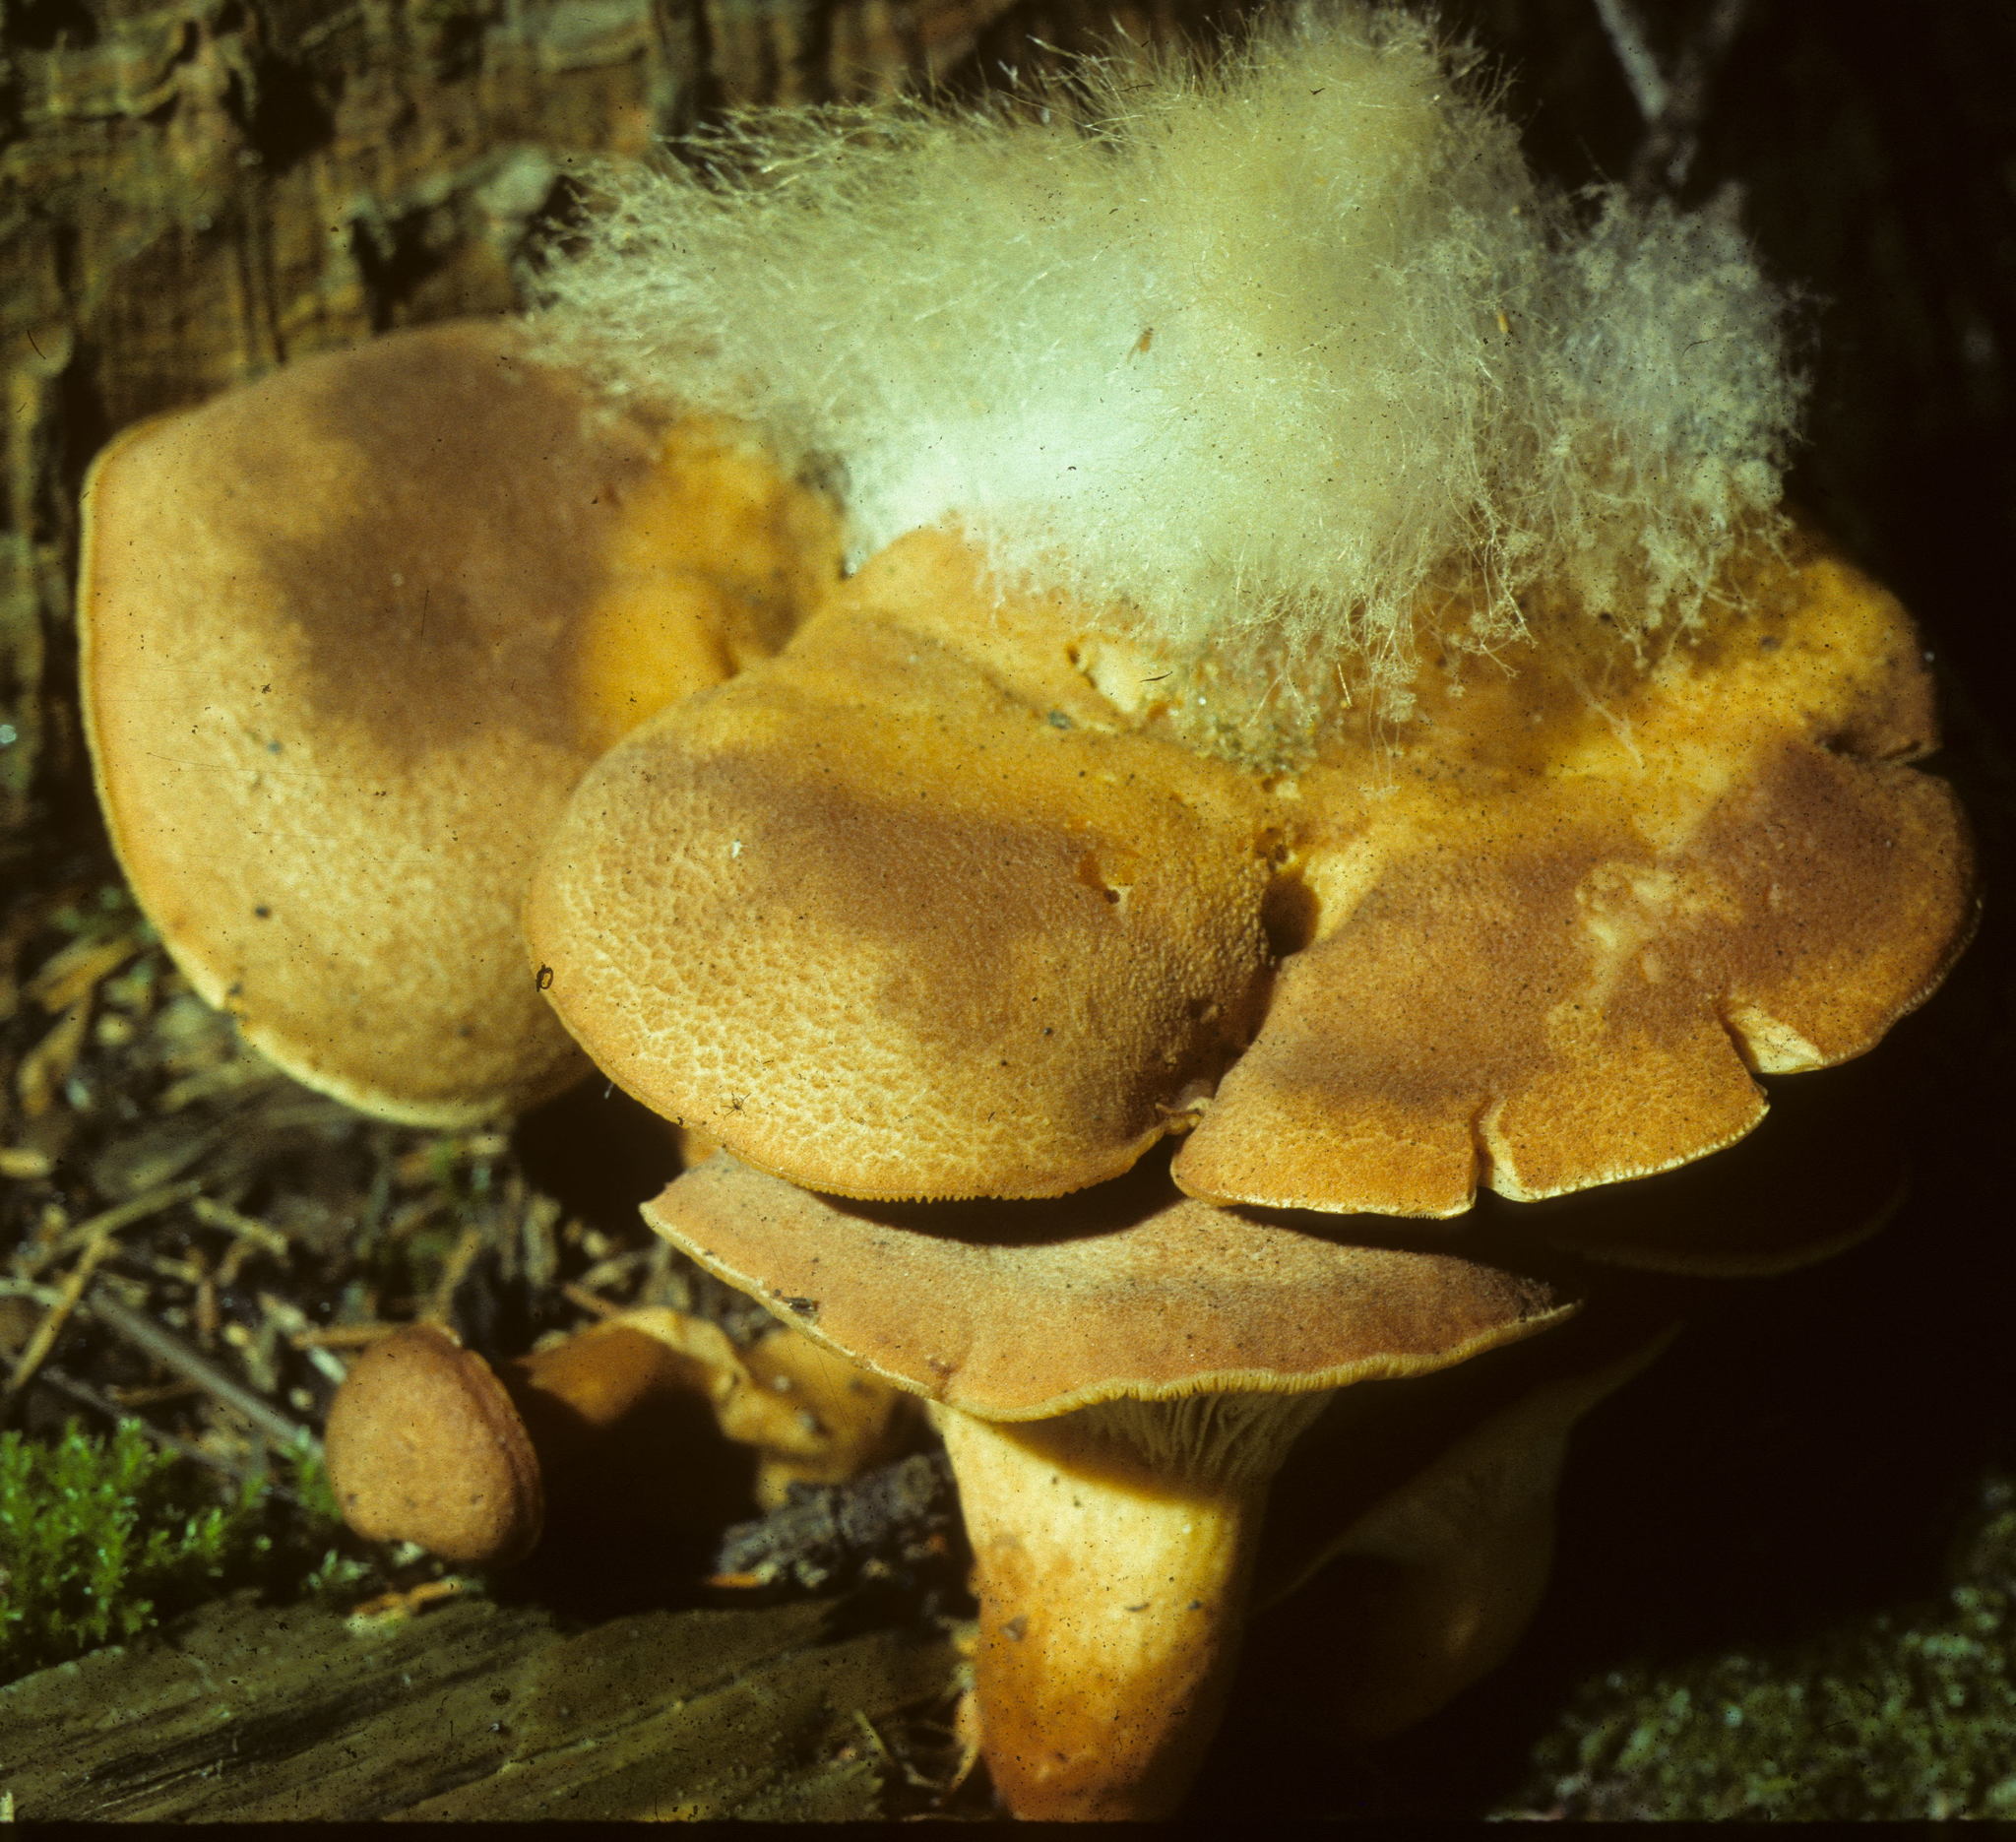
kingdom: Fungi
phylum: Mucoromycota
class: Mucoromycetes
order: Mucorales
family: Rhizopodaceae
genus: Syzygites
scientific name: Syzygites megalocarpus
